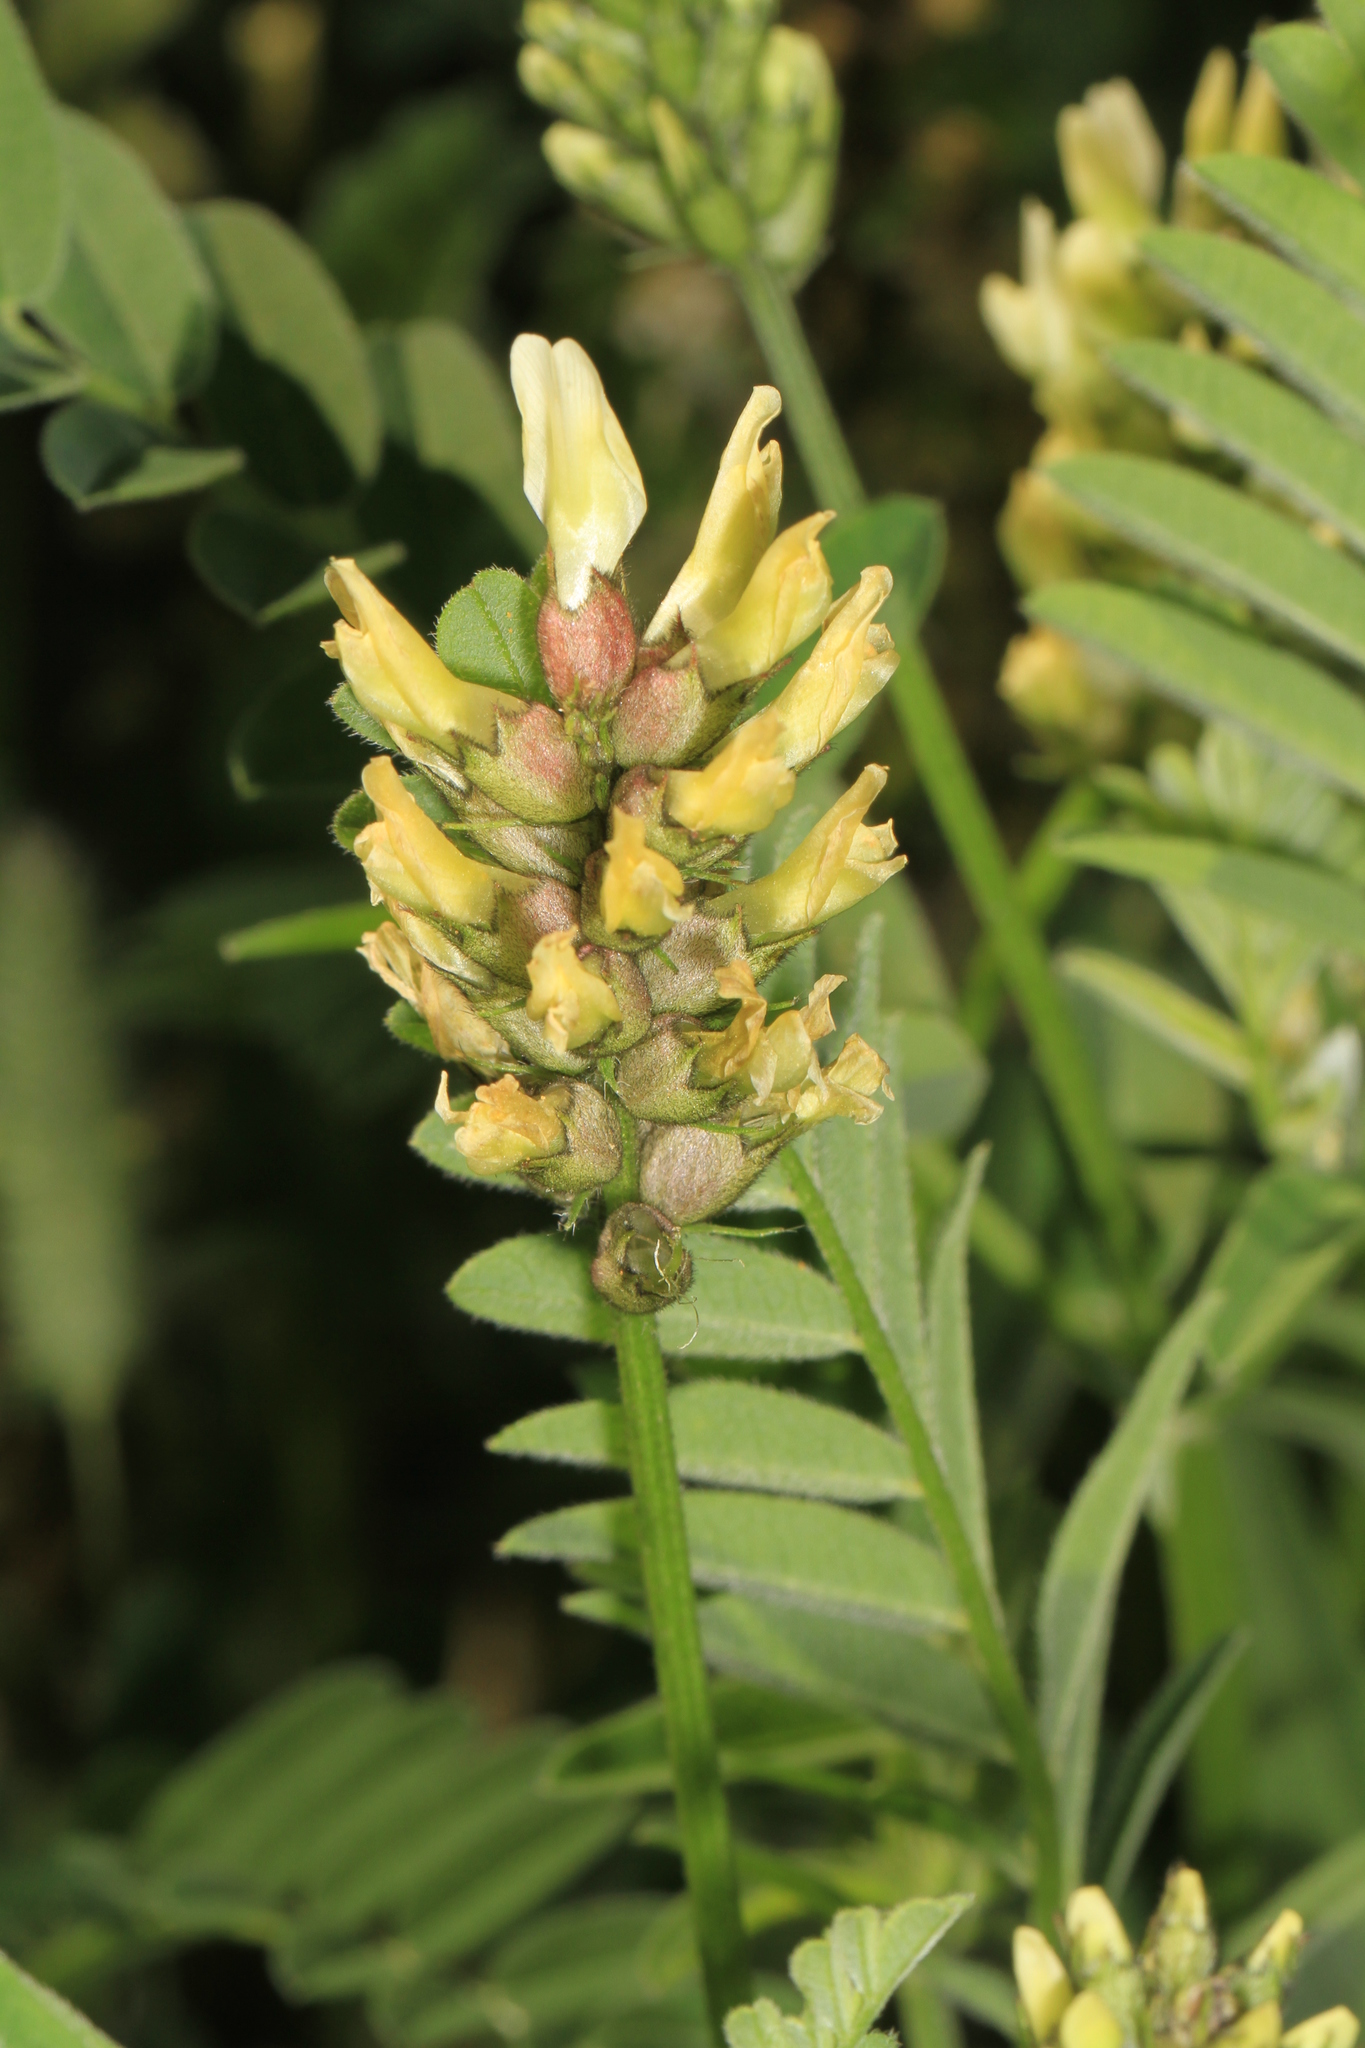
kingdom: Plantae
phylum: Tracheophyta
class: Magnoliopsida
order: Fabales
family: Fabaceae
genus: Astragalus
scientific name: Astragalus cicer
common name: Chick-pea milk-vetch
